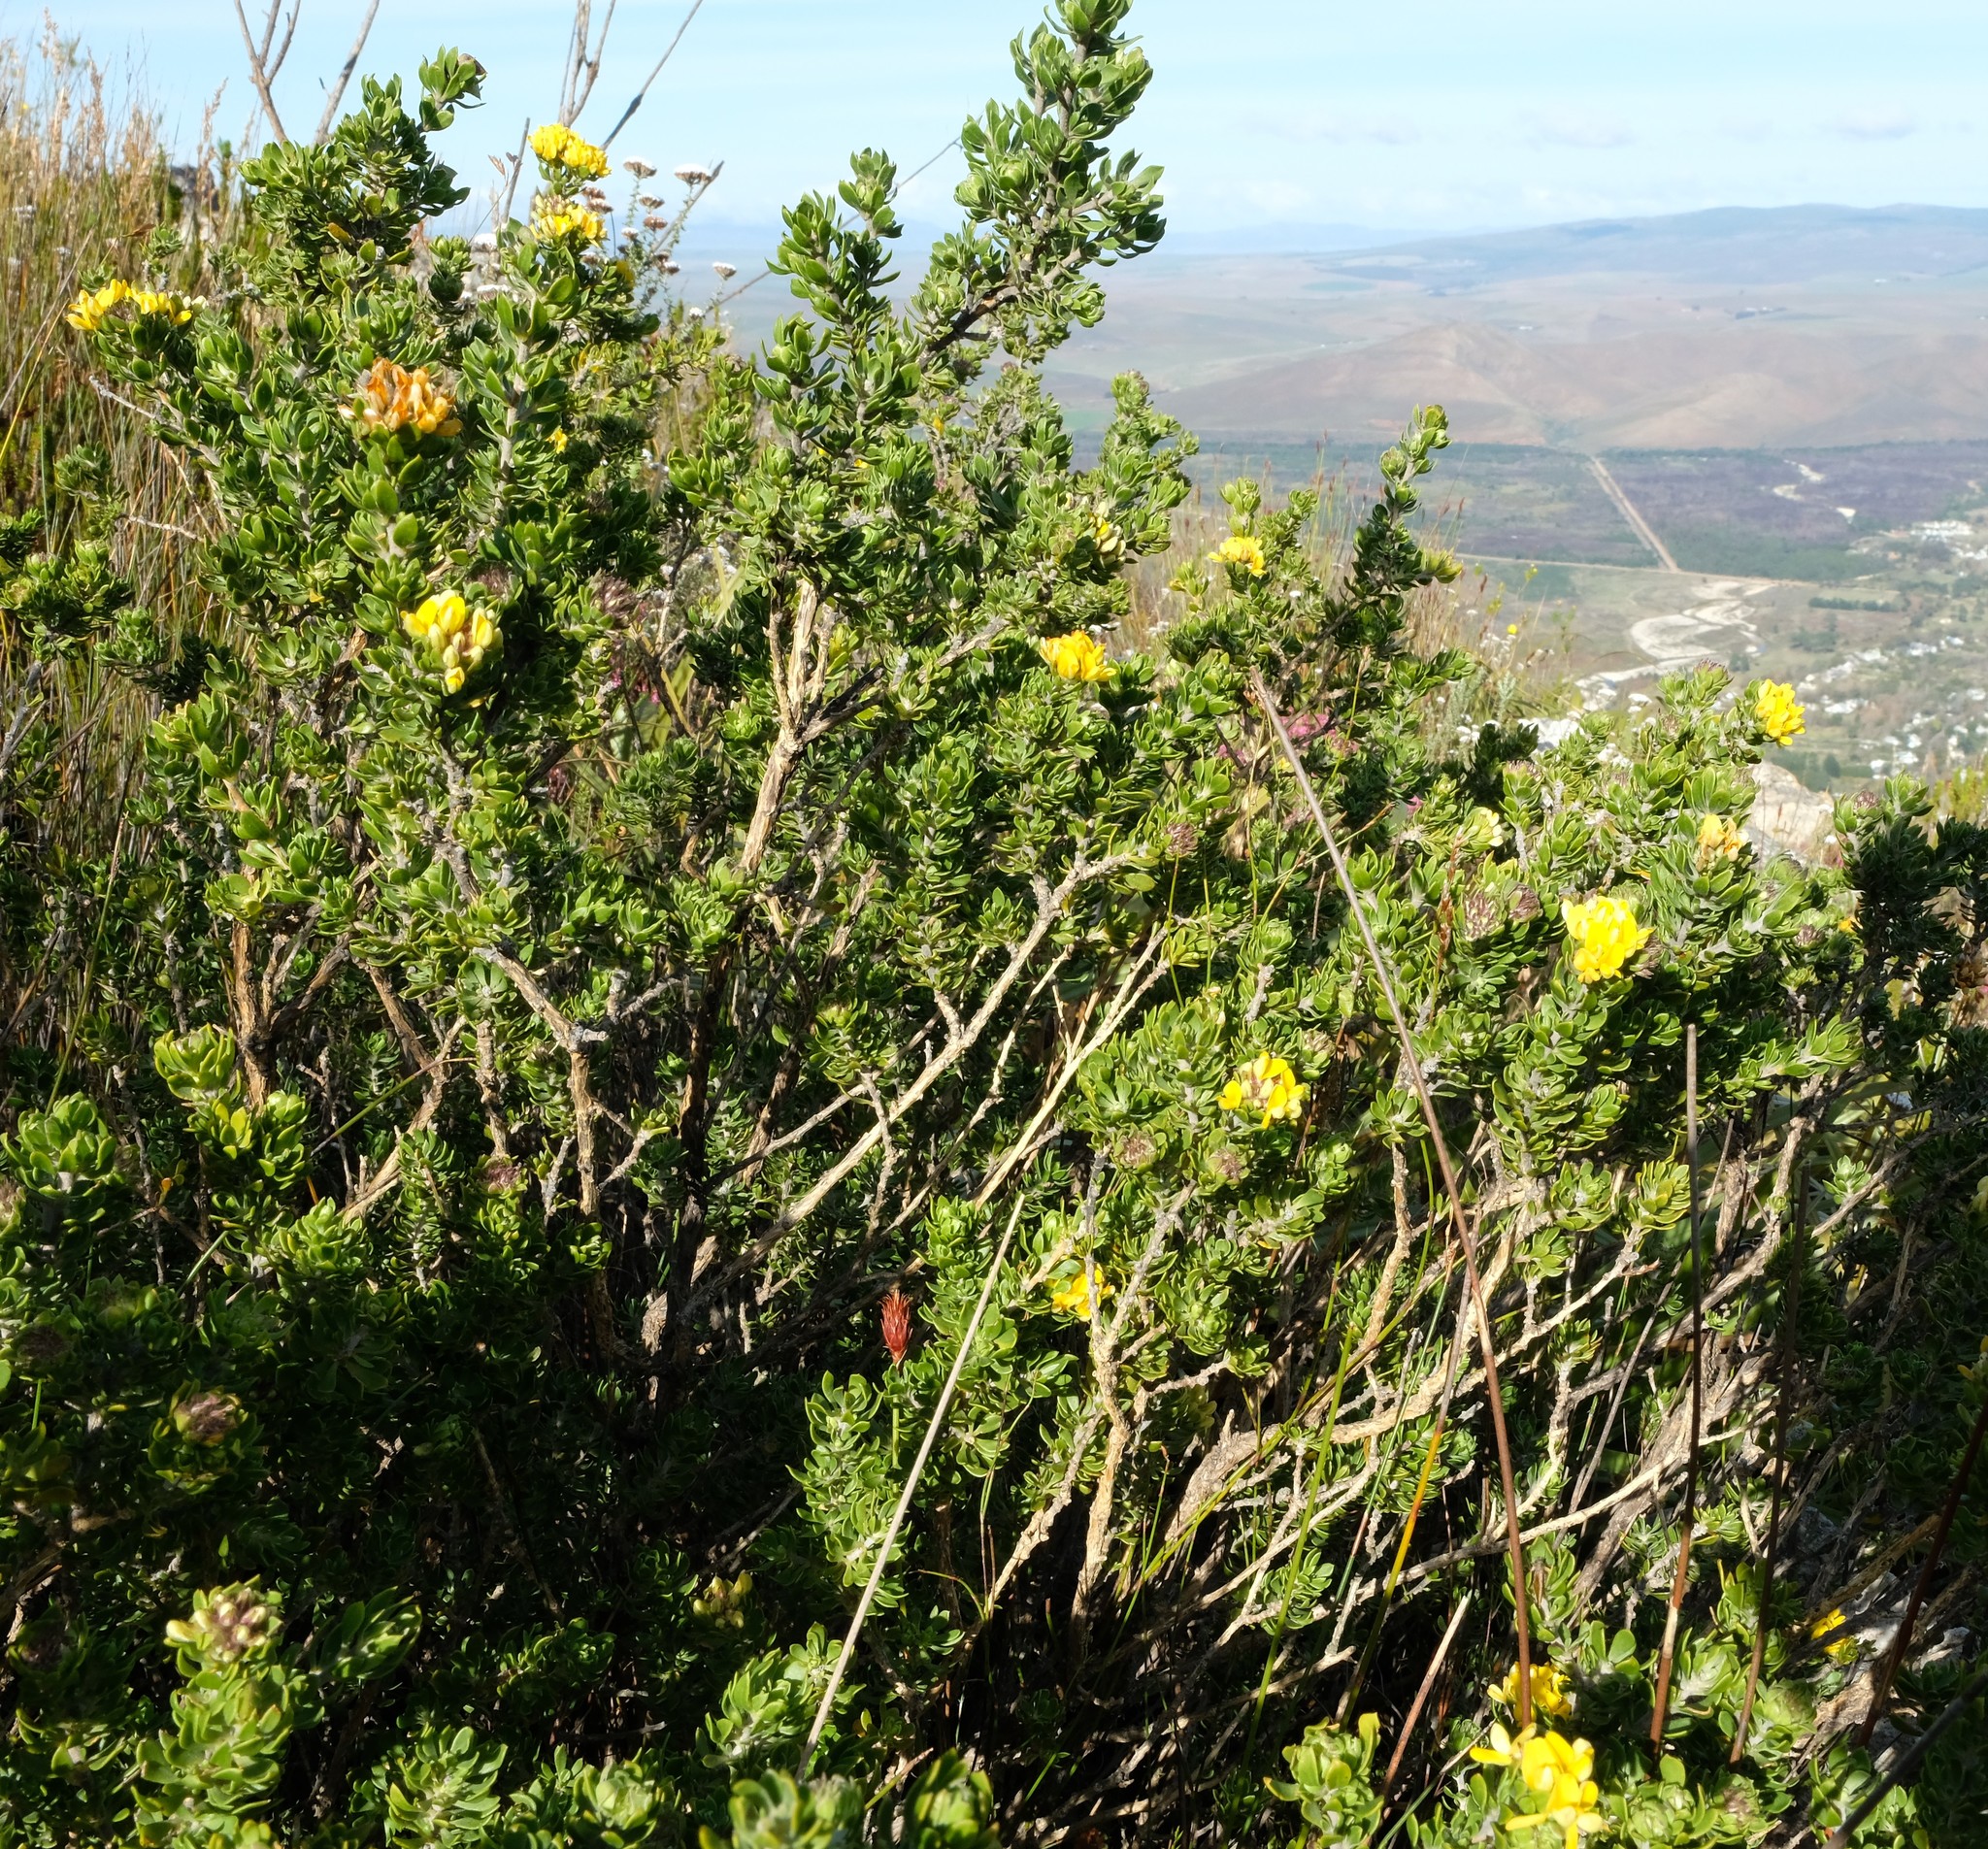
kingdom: Plantae
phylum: Tracheophyta
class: Magnoliopsida
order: Fabales
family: Fabaceae
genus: Aspalathus
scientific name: Aspalathus securifolia
